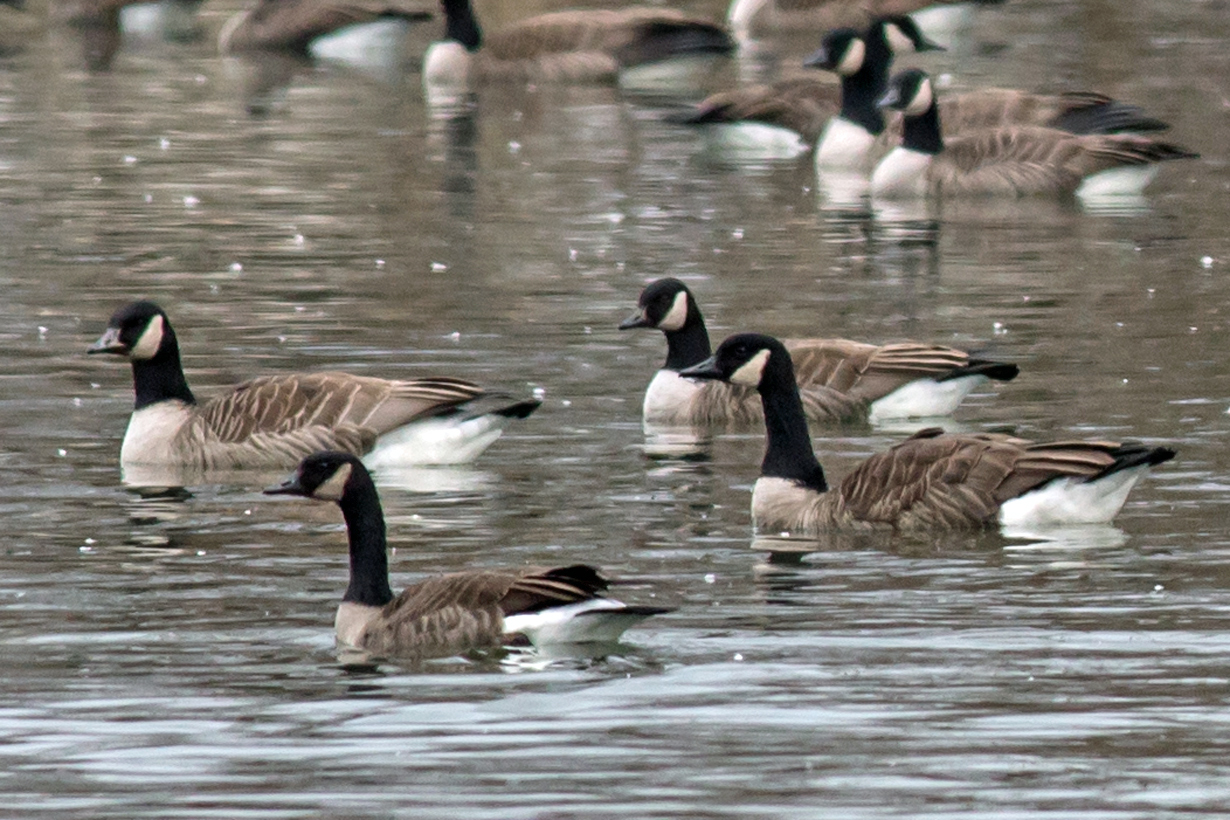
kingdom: Animalia
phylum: Chordata
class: Aves
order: Anseriformes
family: Anatidae
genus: Branta
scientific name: Branta canadensis
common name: Canada goose
